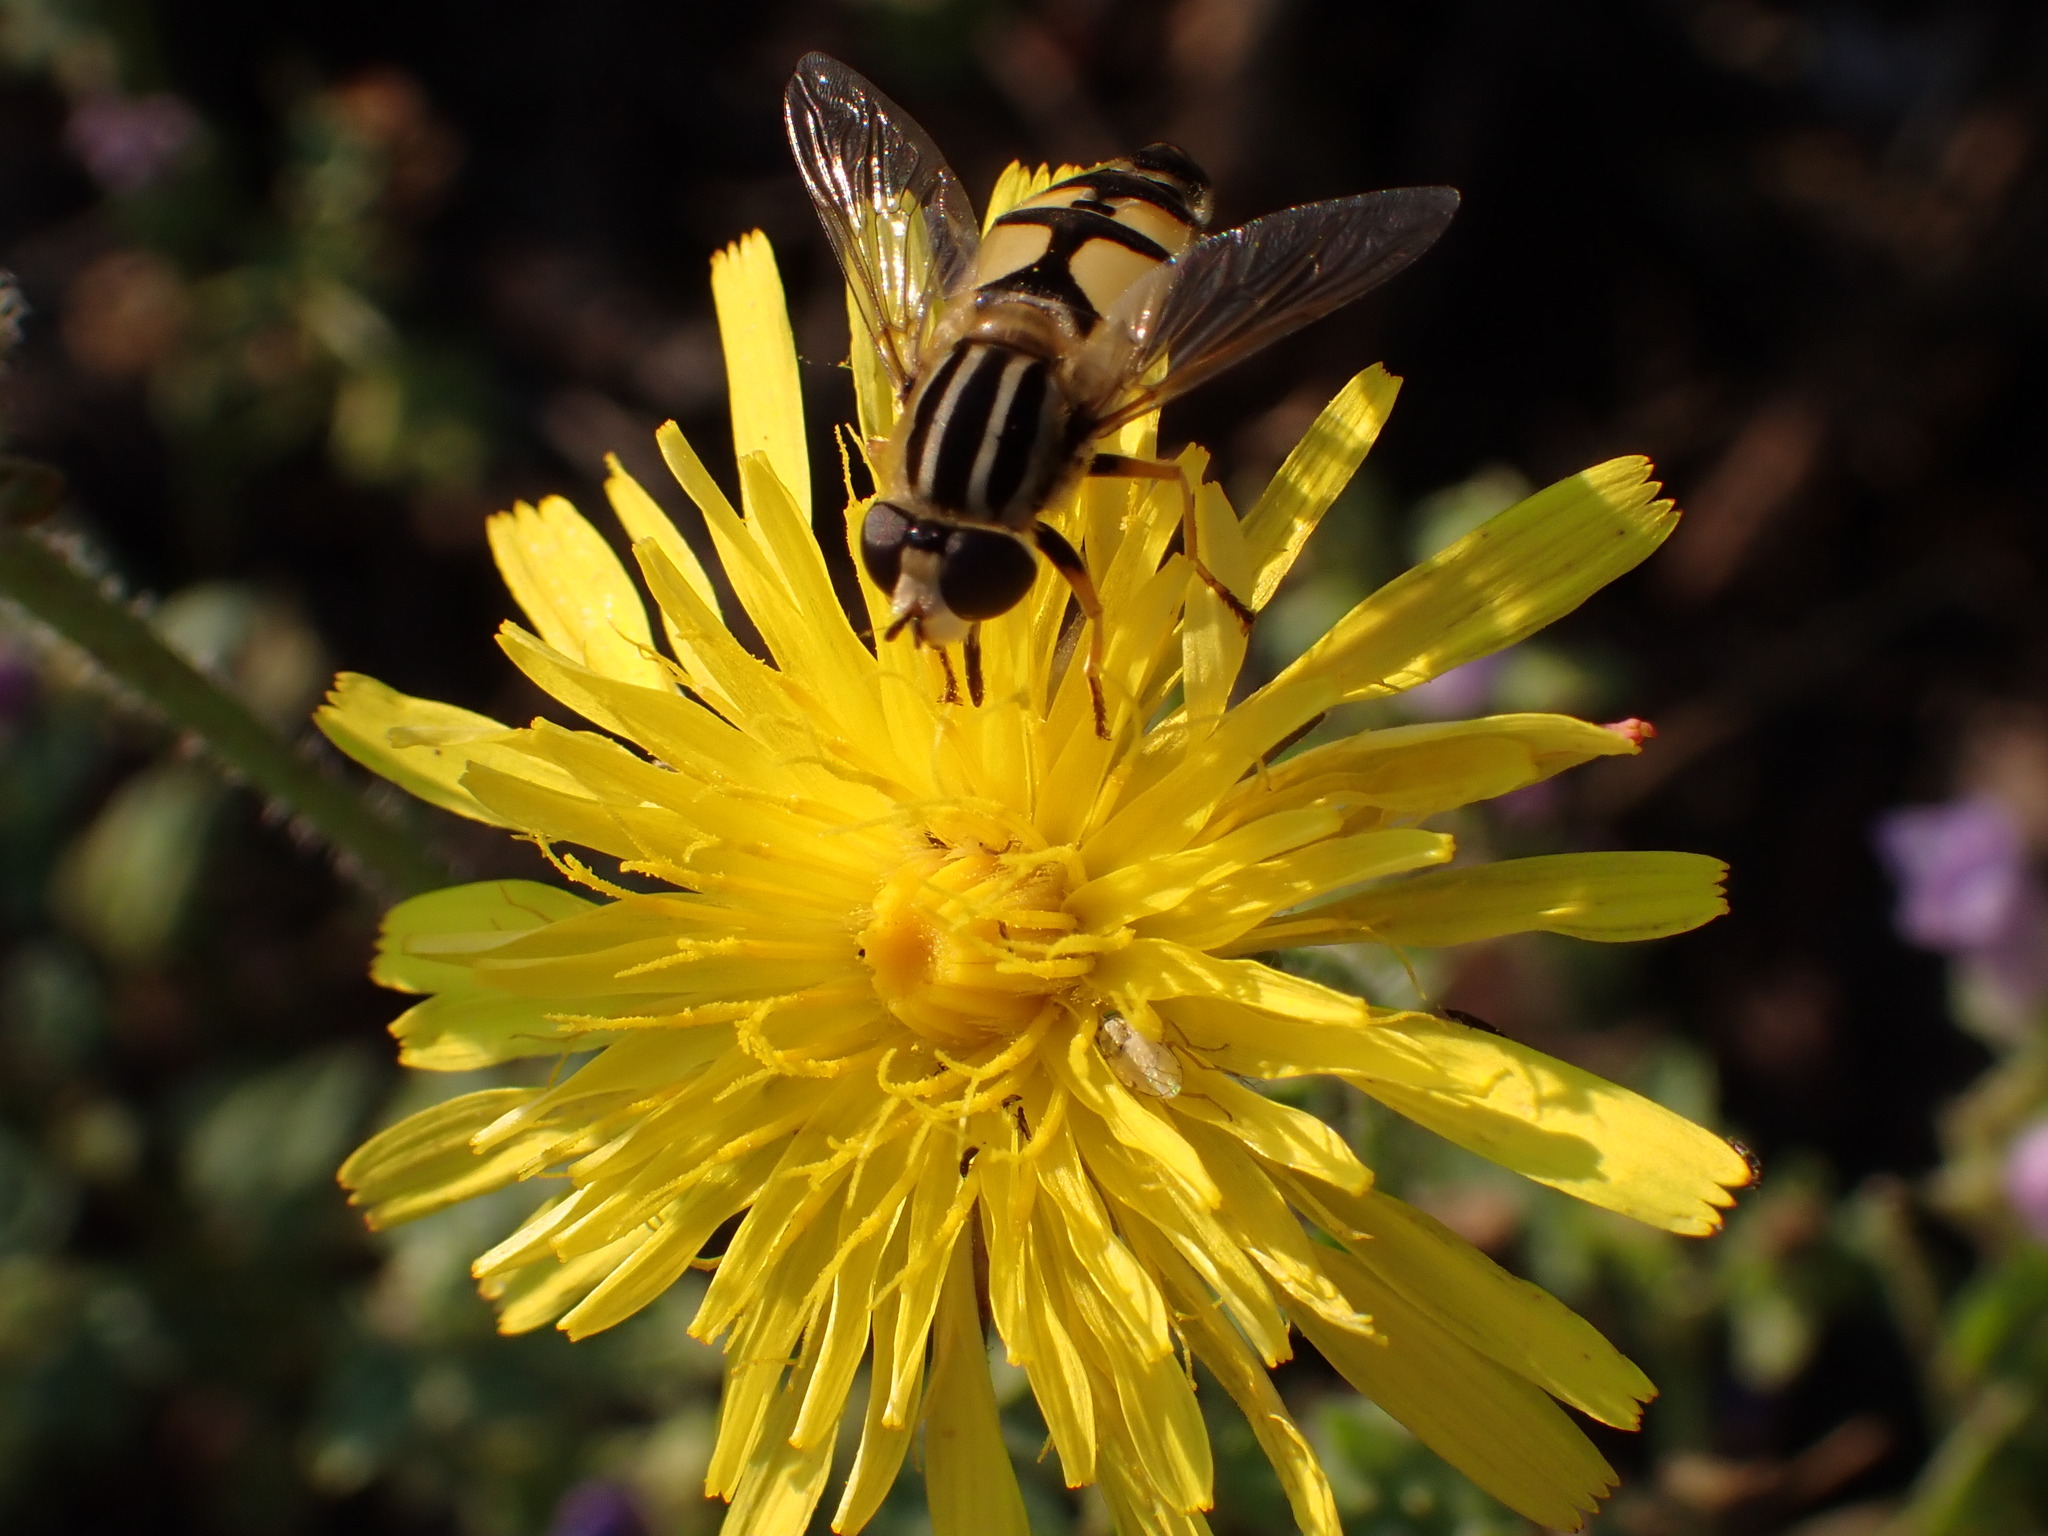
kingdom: Animalia
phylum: Arthropoda
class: Insecta
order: Diptera
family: Syrphidae
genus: Helophilus
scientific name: Helophilus trivittatus
